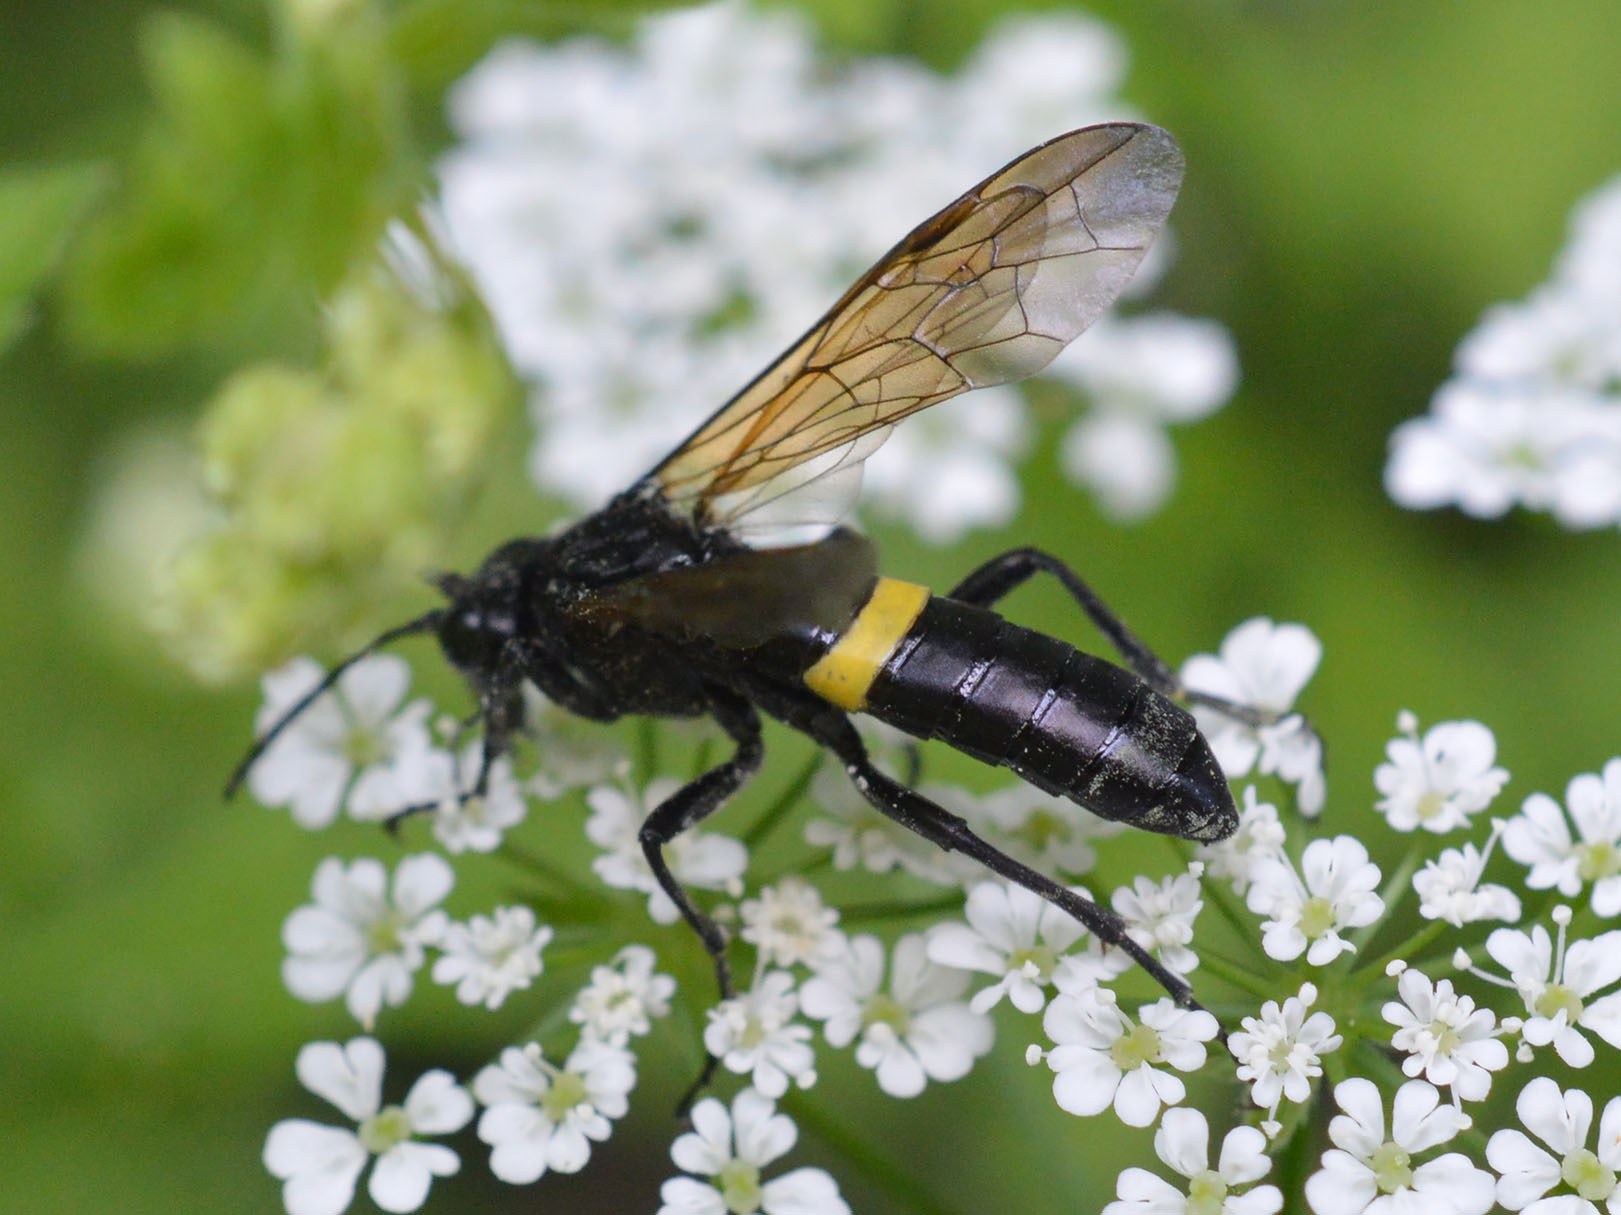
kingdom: Animalia
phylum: Arthropoda
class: Insecta
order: Hymenoptera
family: Tenthredinidae
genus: Tenthredo
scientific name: Tenthredo caucasica
